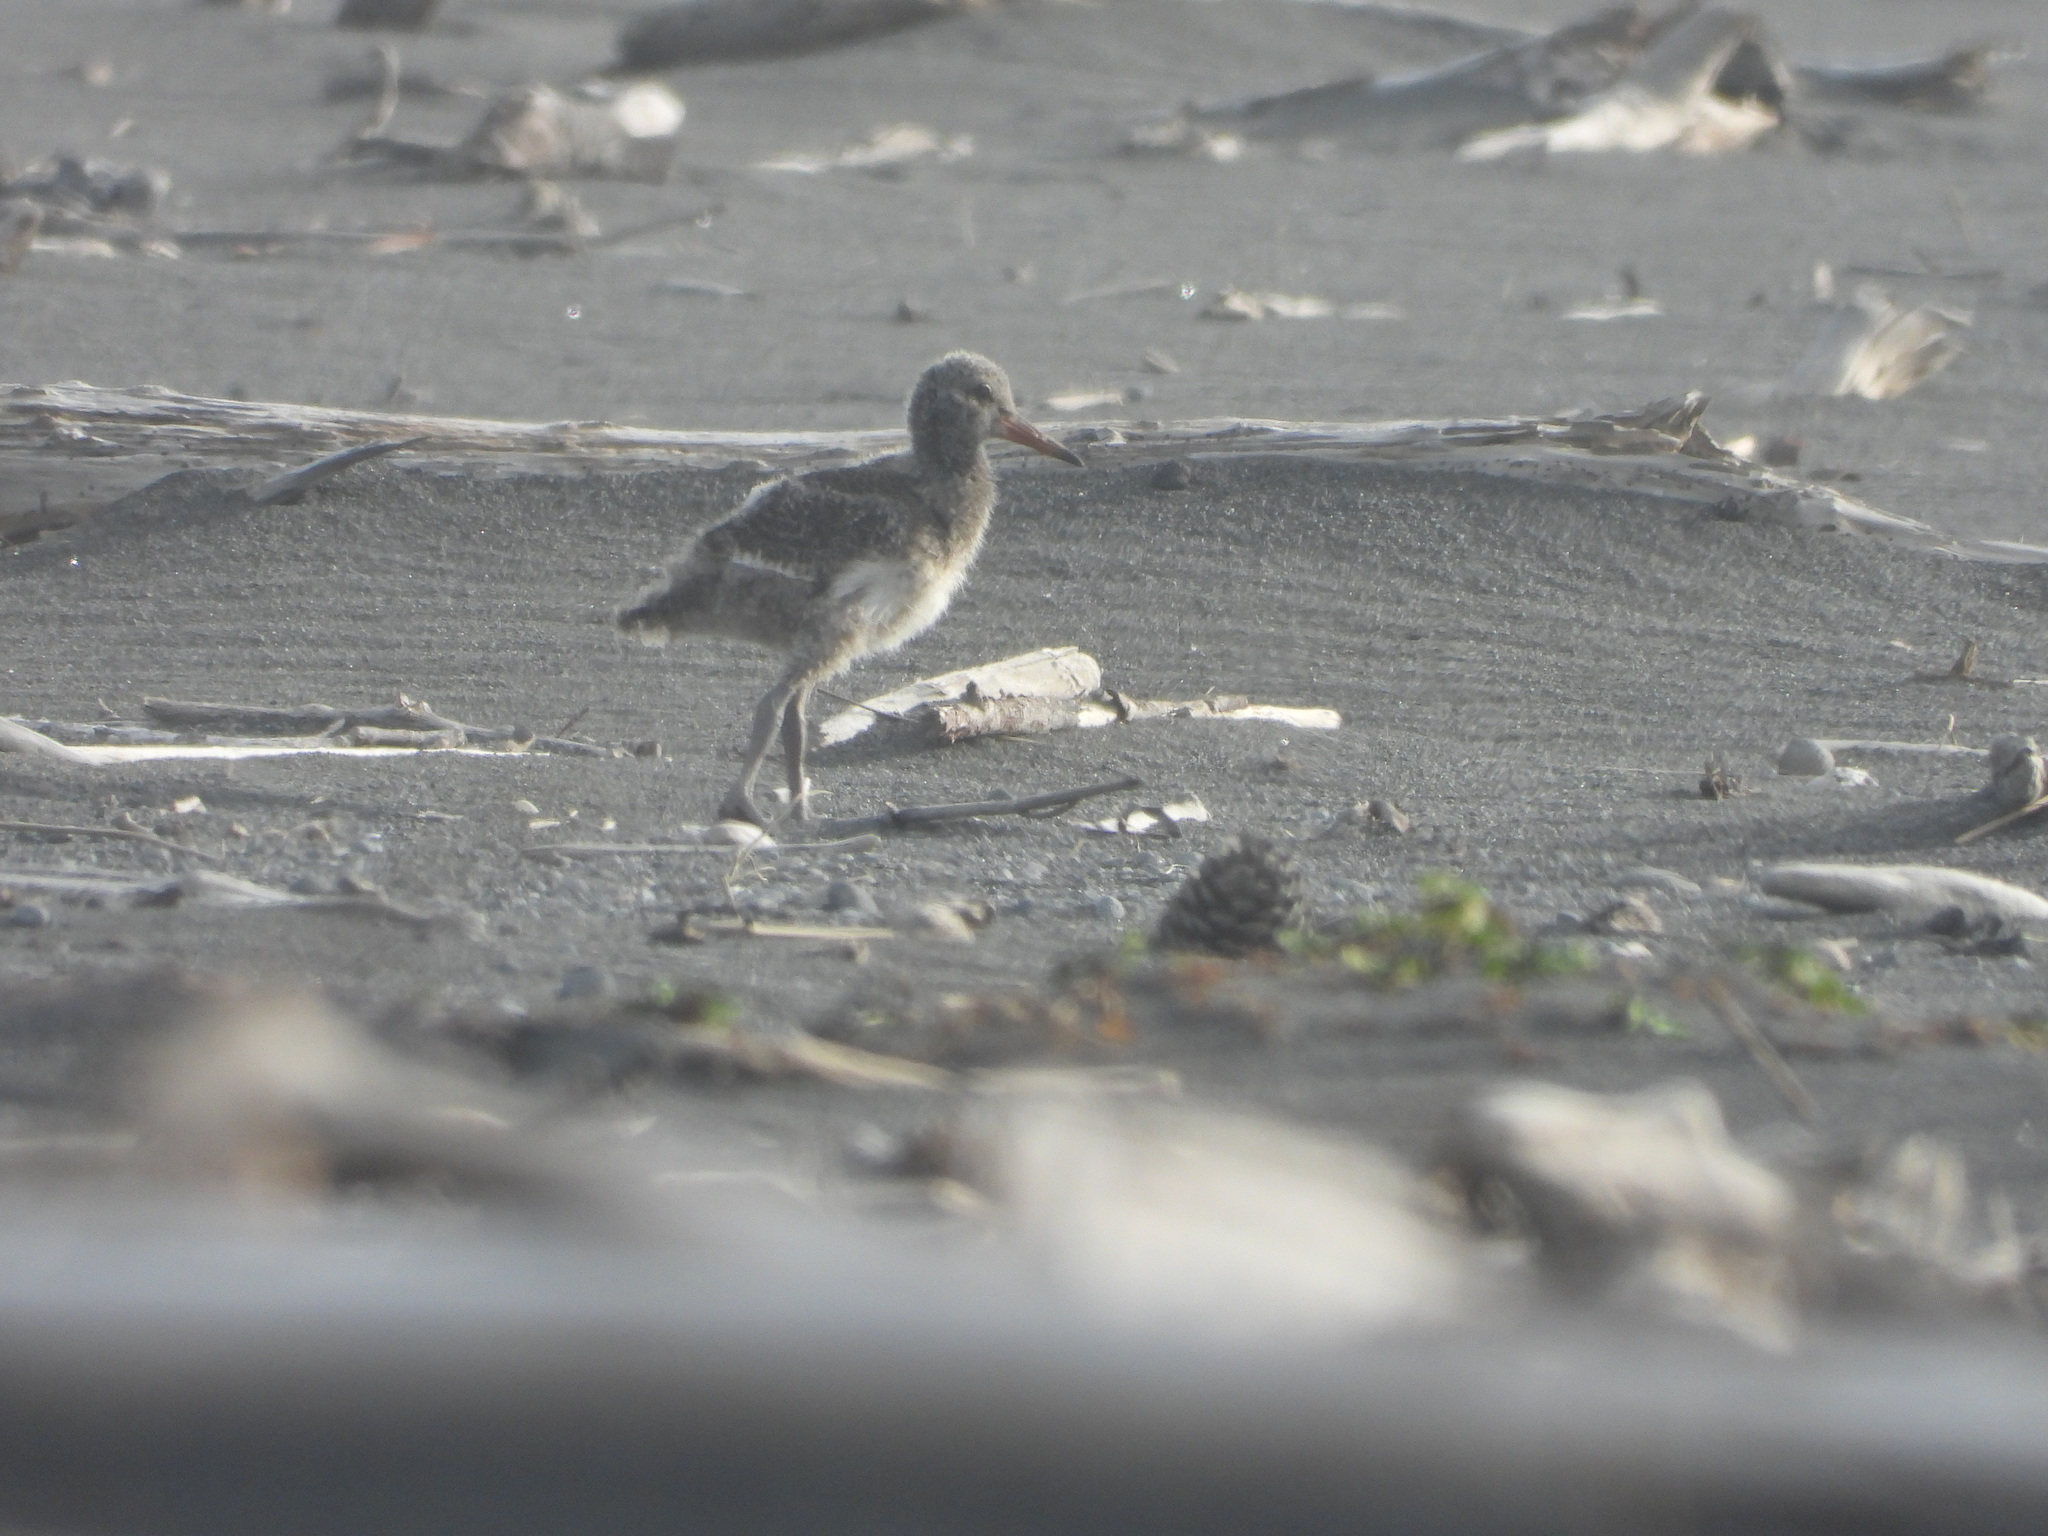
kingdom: Animalia
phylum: Chordata
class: Aves
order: Charadriiformes
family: Haematopodidae
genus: Haematopus
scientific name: Haematopus unicolor
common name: Variable oystercatcher
